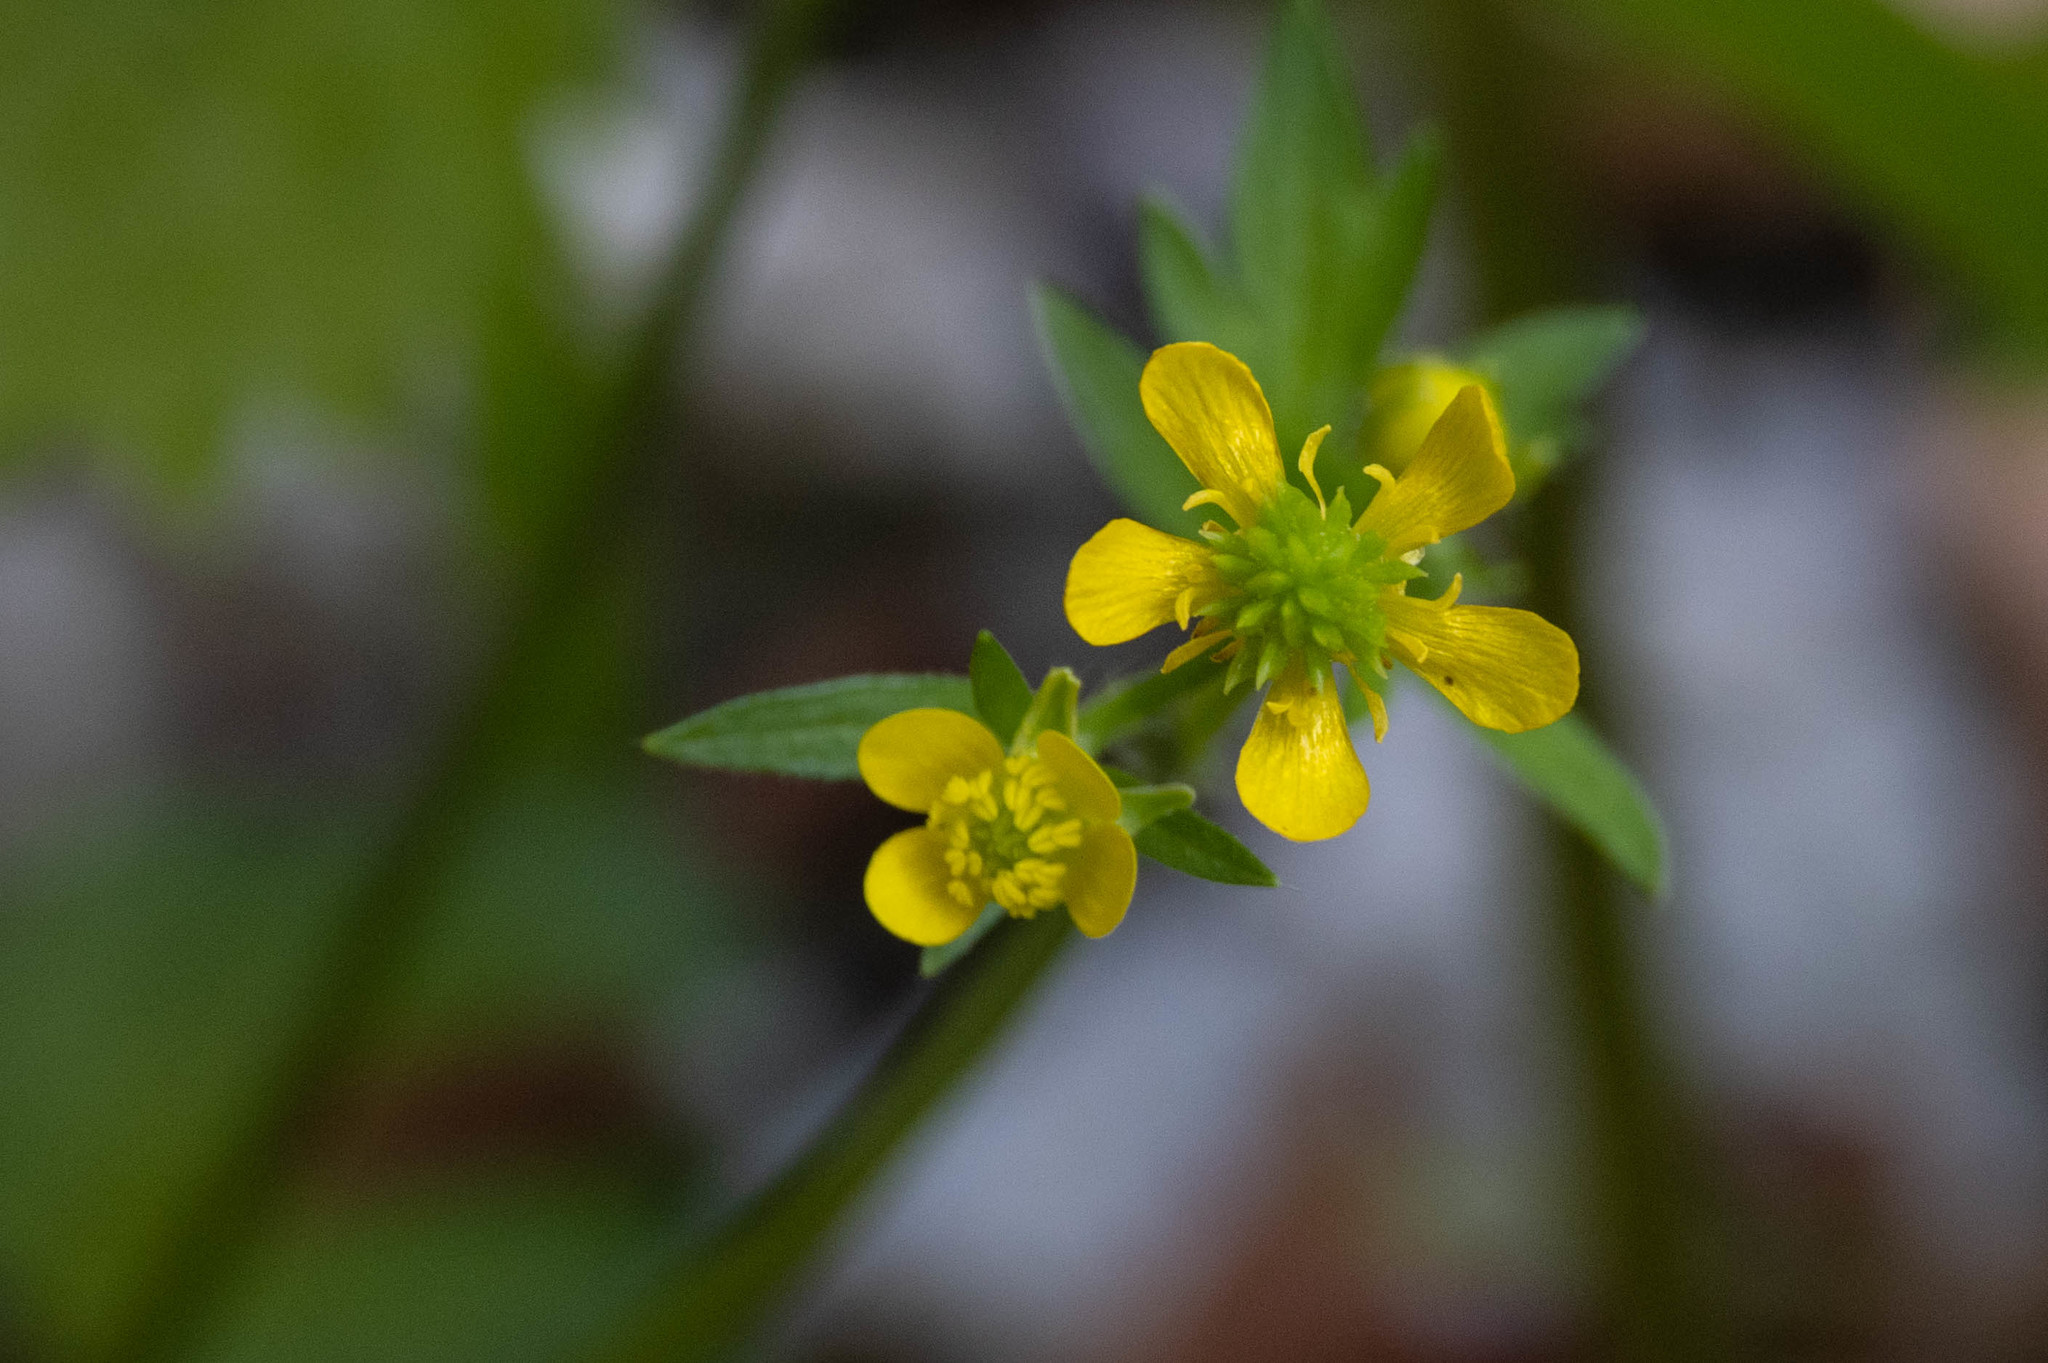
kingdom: Plantae
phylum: Tracheophyta
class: Magnoliopsida
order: Ranunculales
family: Ranunculaceae
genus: Ranunculus
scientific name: Ranunculus muricatus
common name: Rough-fruited buttercup
